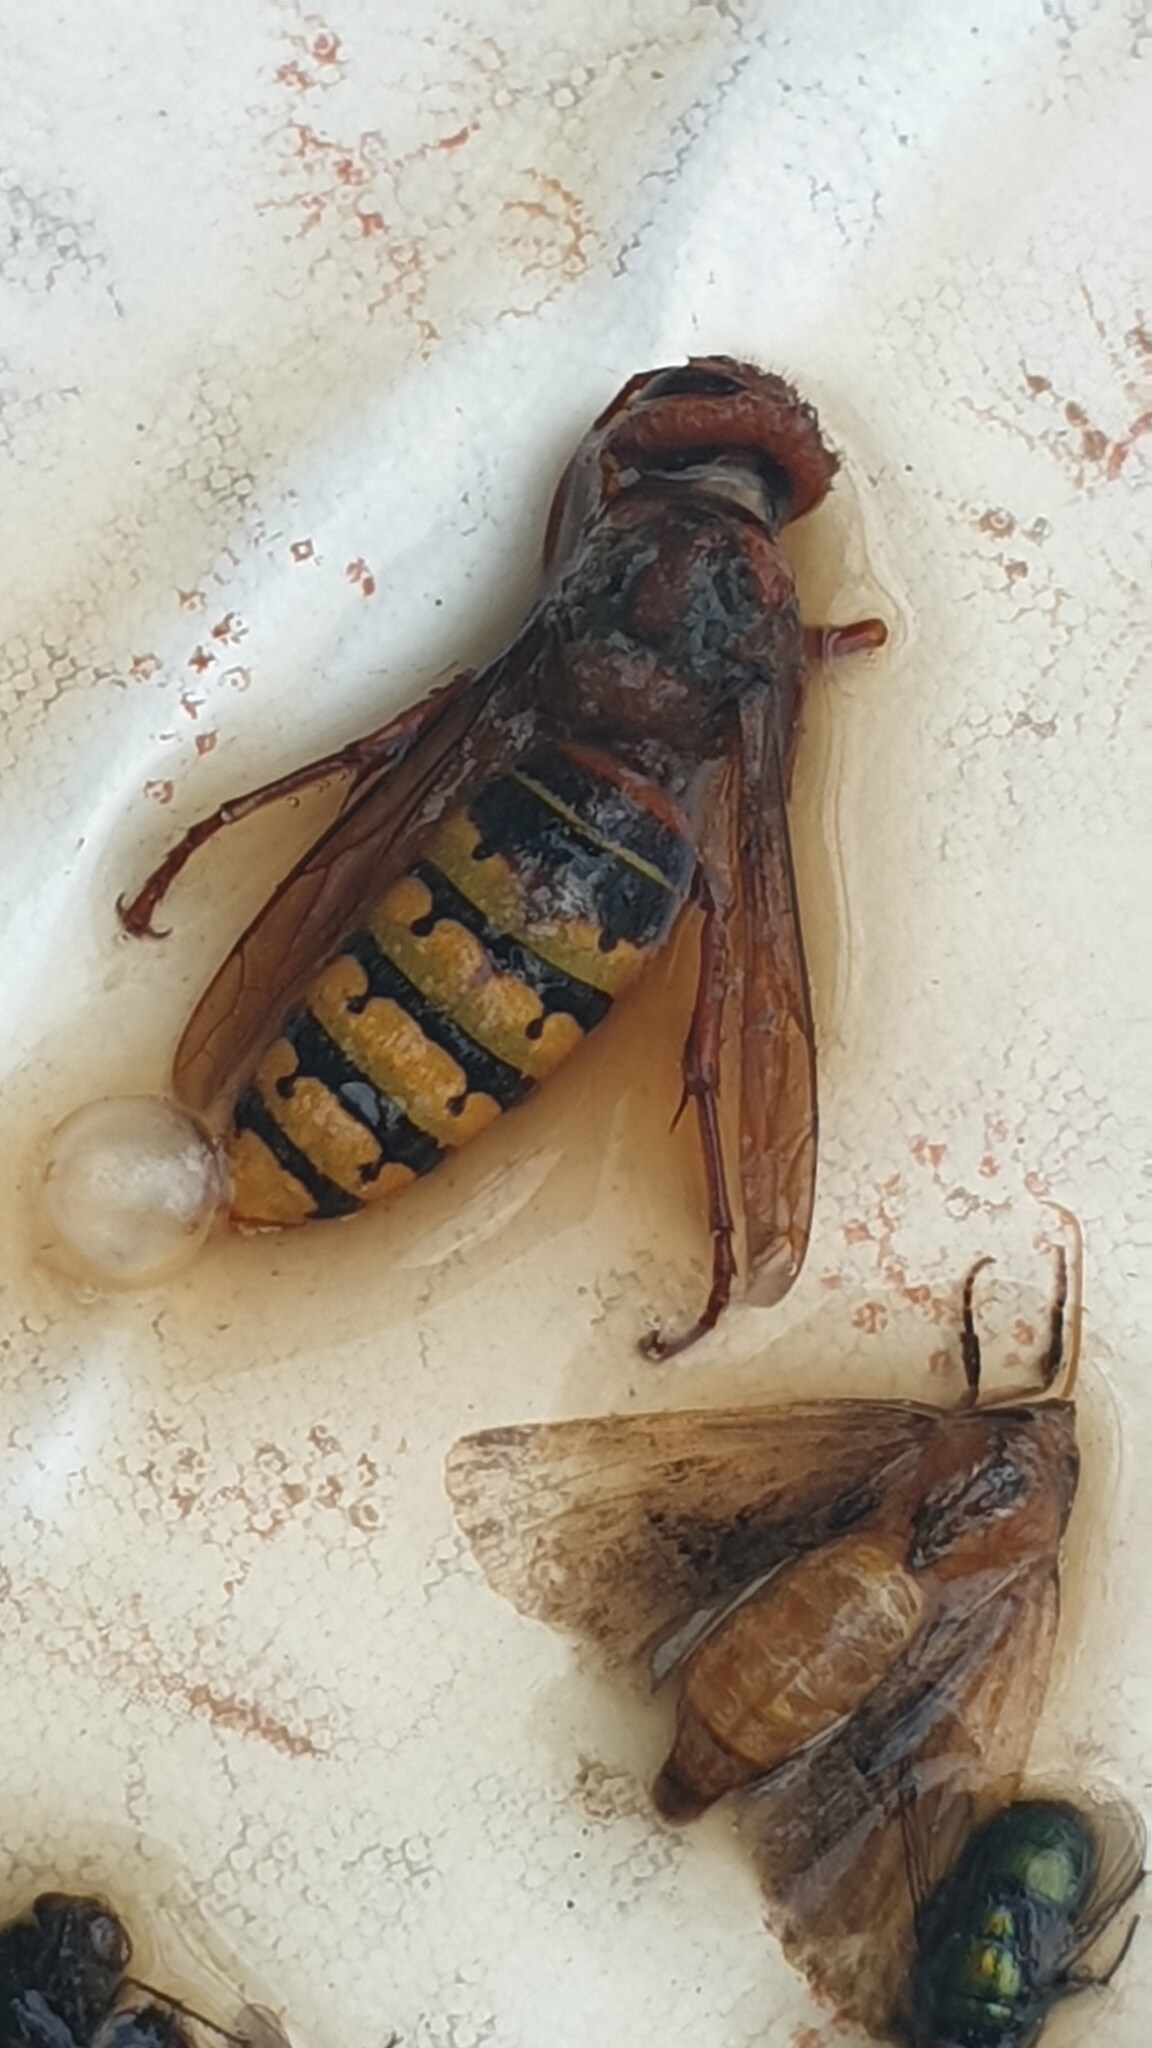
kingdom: Animalia
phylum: Arthropoda
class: Insecta
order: Hymenoptera
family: Vespidae
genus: Vespa
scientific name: Vespa crabro
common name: Hornet
